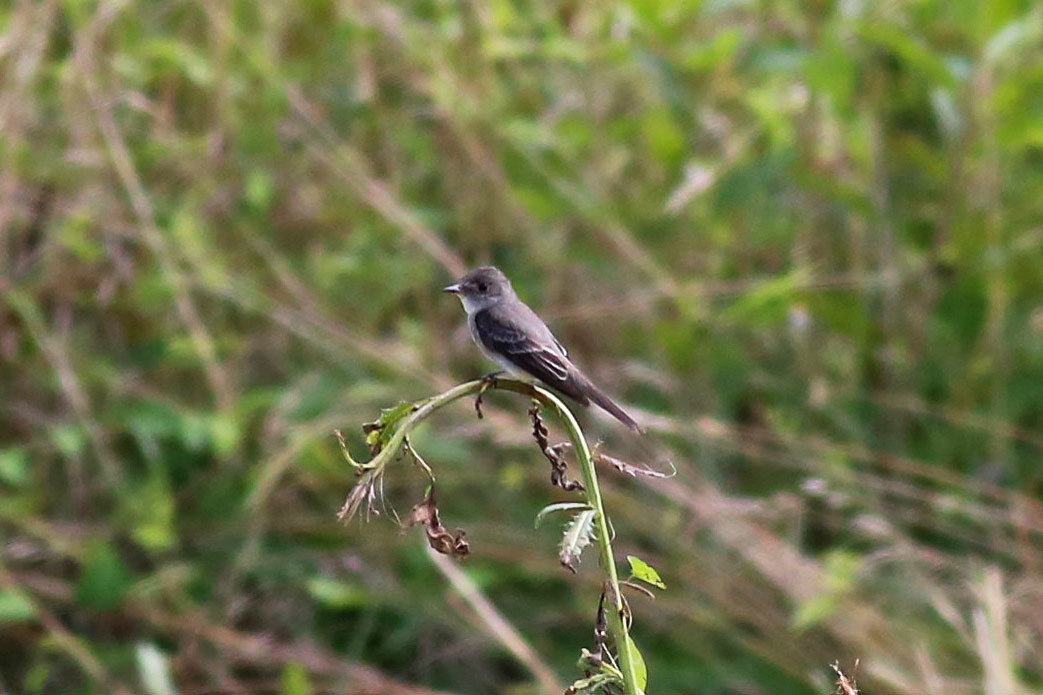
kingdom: Animalia
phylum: Chordata
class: Aves
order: Passeriformes
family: Tyrannidae
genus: Contopus
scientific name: Contopus virens
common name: Eastern wood-pewee
